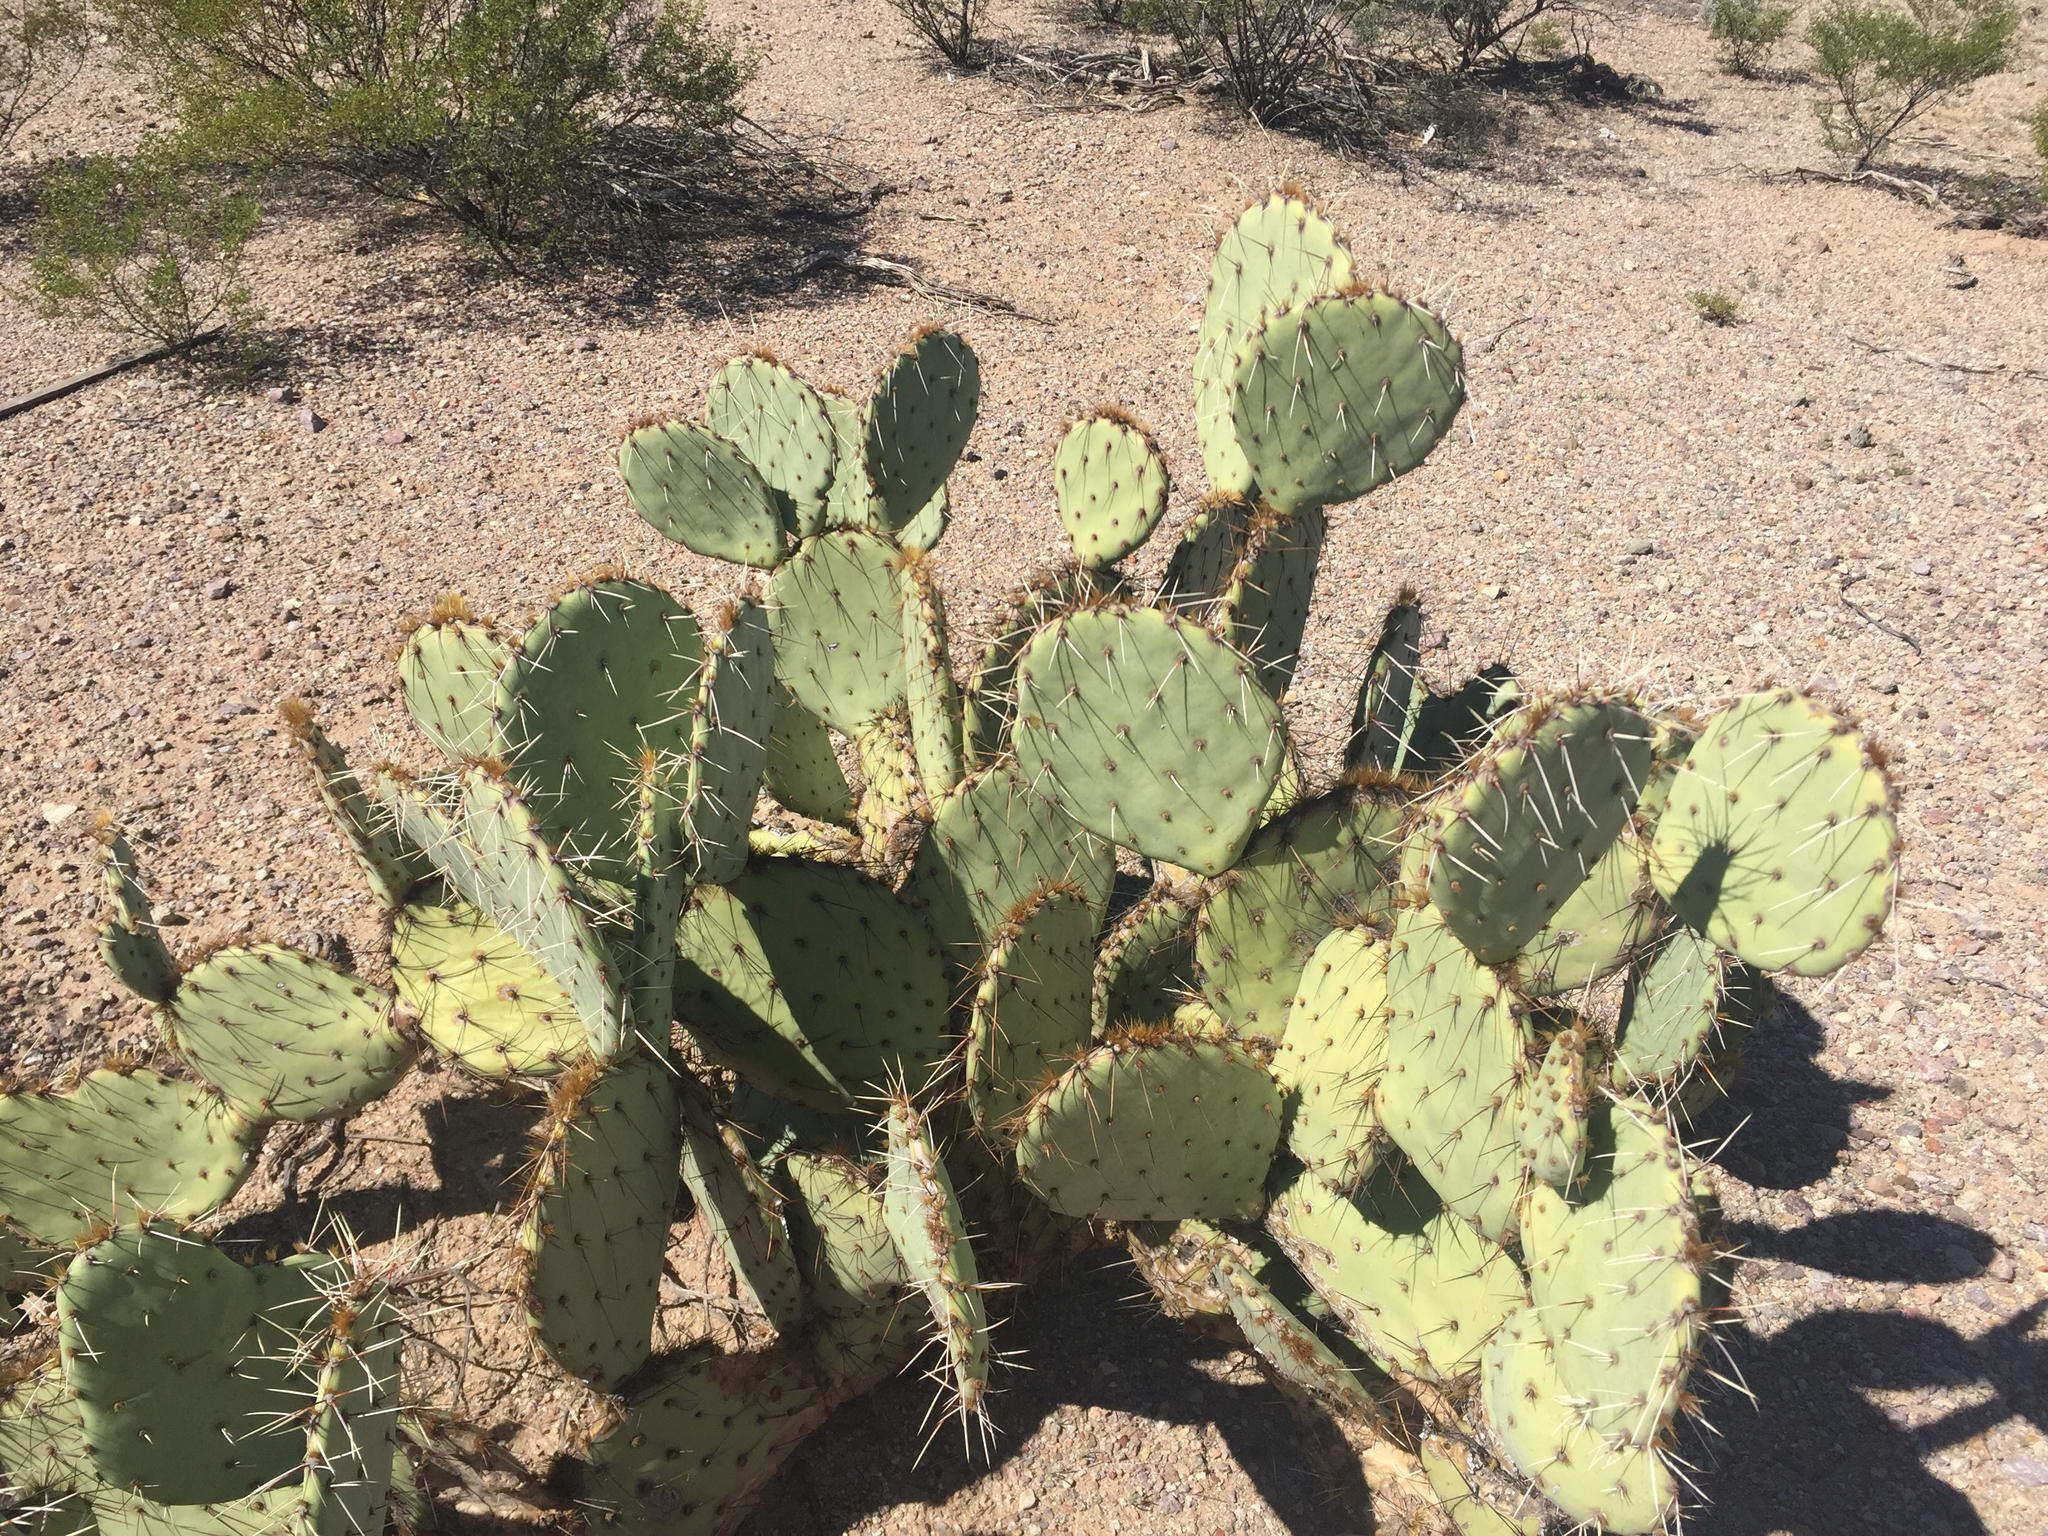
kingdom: Plantae
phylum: Tracheophyta
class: Magnoliopsida
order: Caryophyllales
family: Cactaceae
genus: Opuntia
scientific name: Opuntia engelmannii
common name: Cactus-apple
